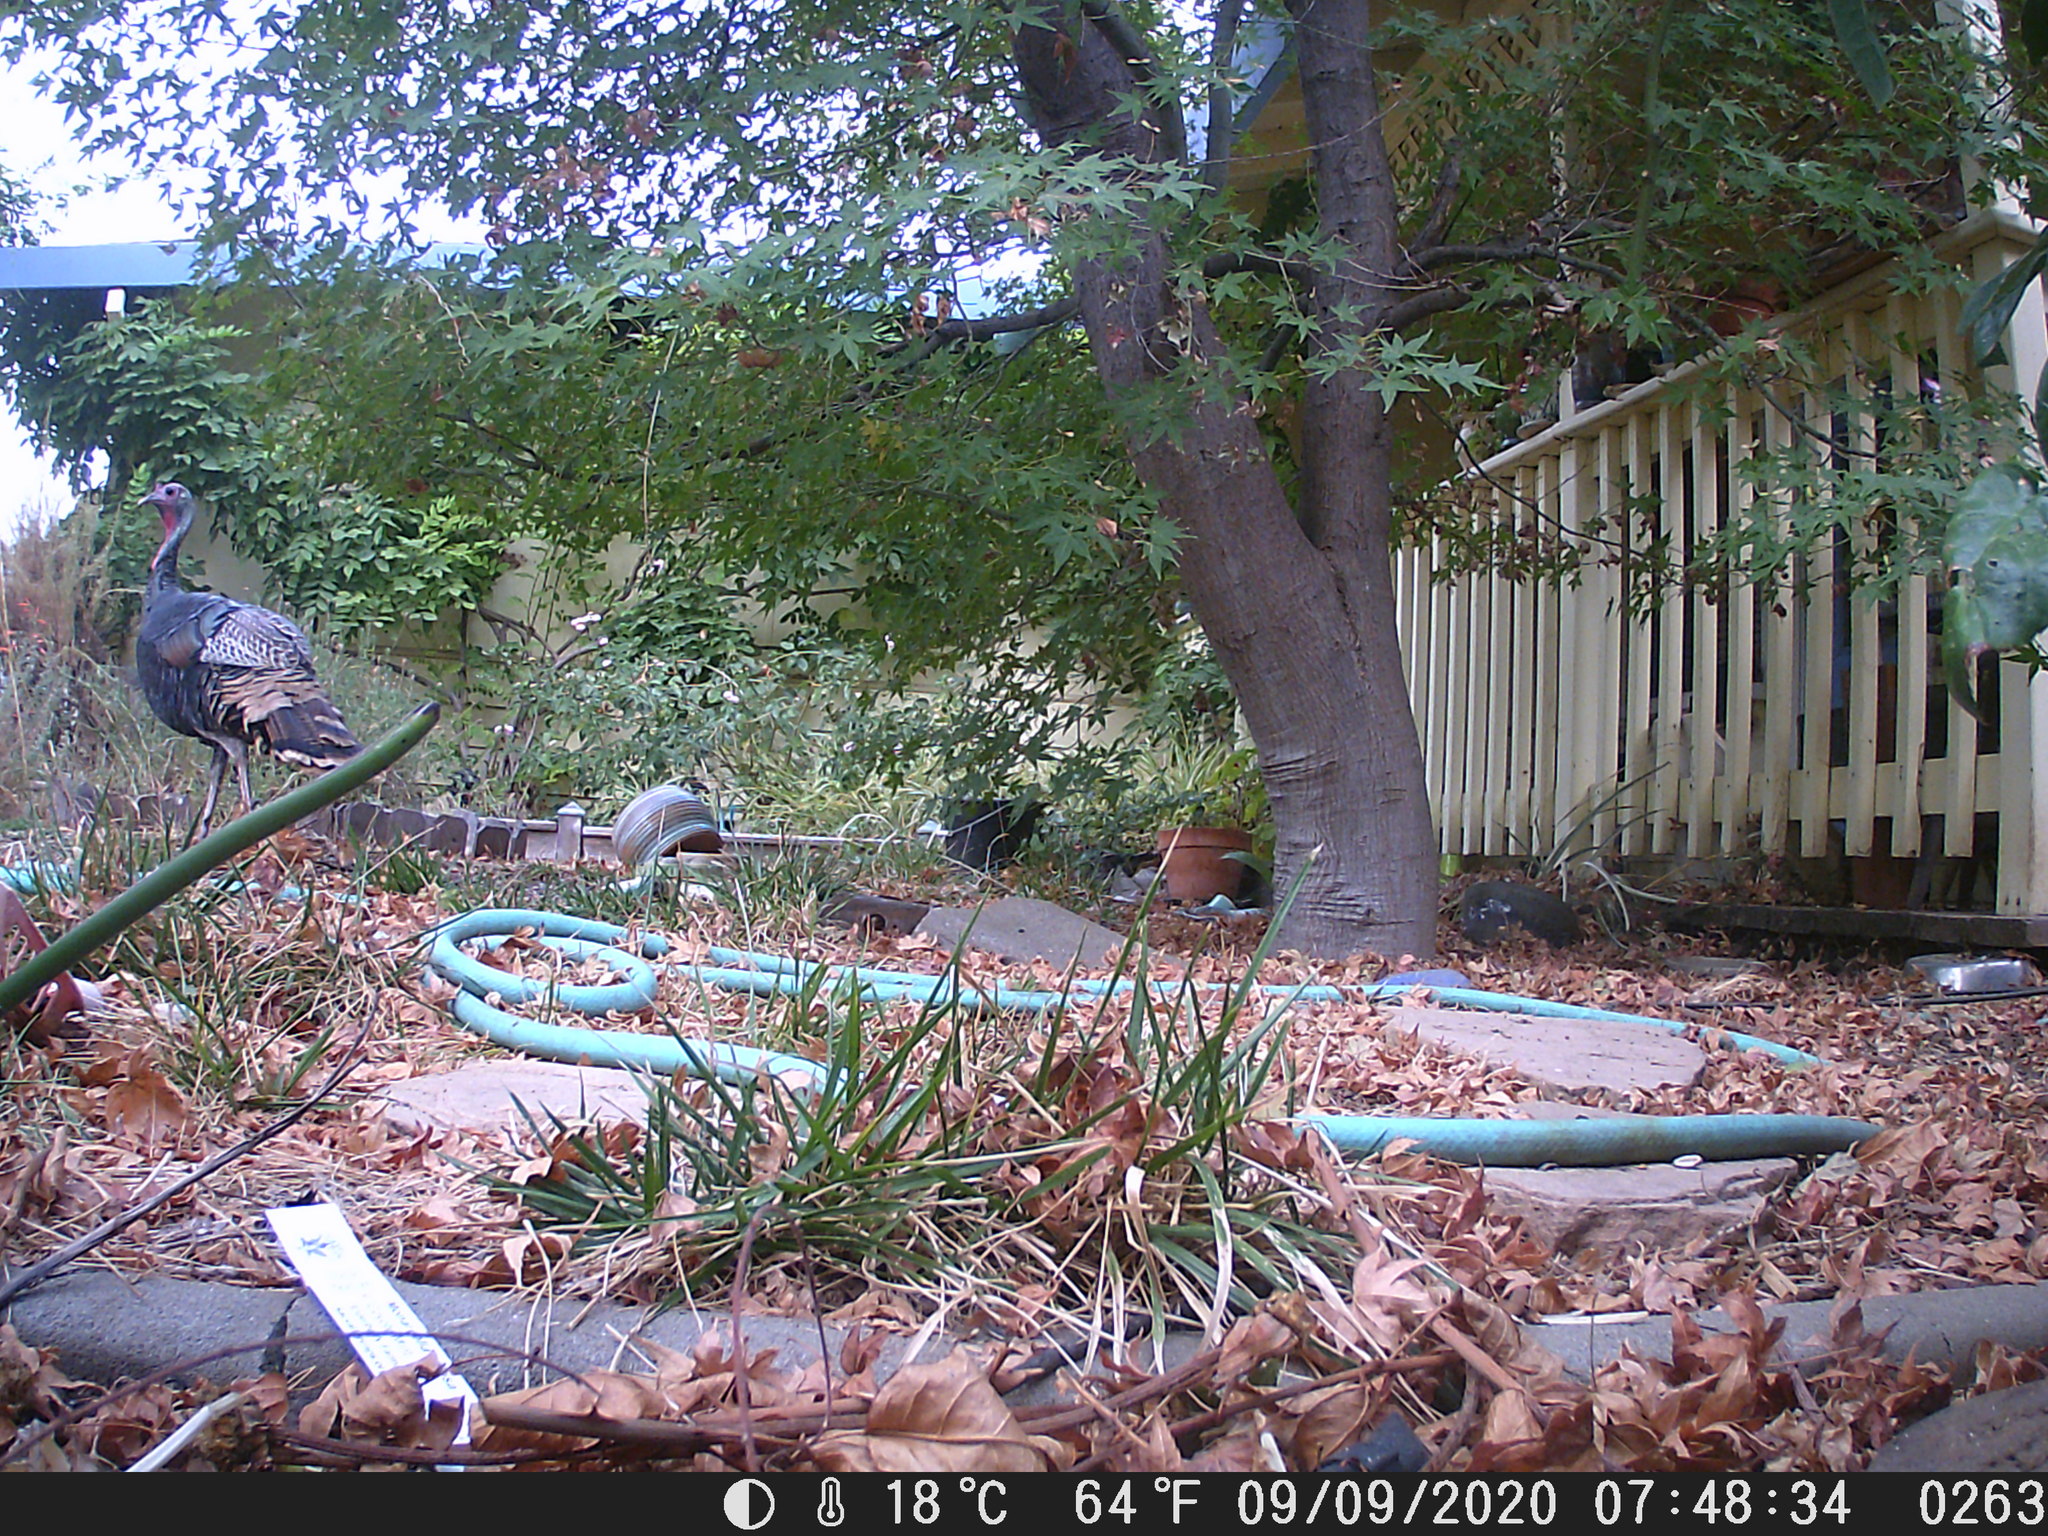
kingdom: Animalia
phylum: Chordata
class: Aves
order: Galliformes
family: Phasianidae
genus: Meleagris
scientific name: Meleagris gallopavo
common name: Wild turkey
